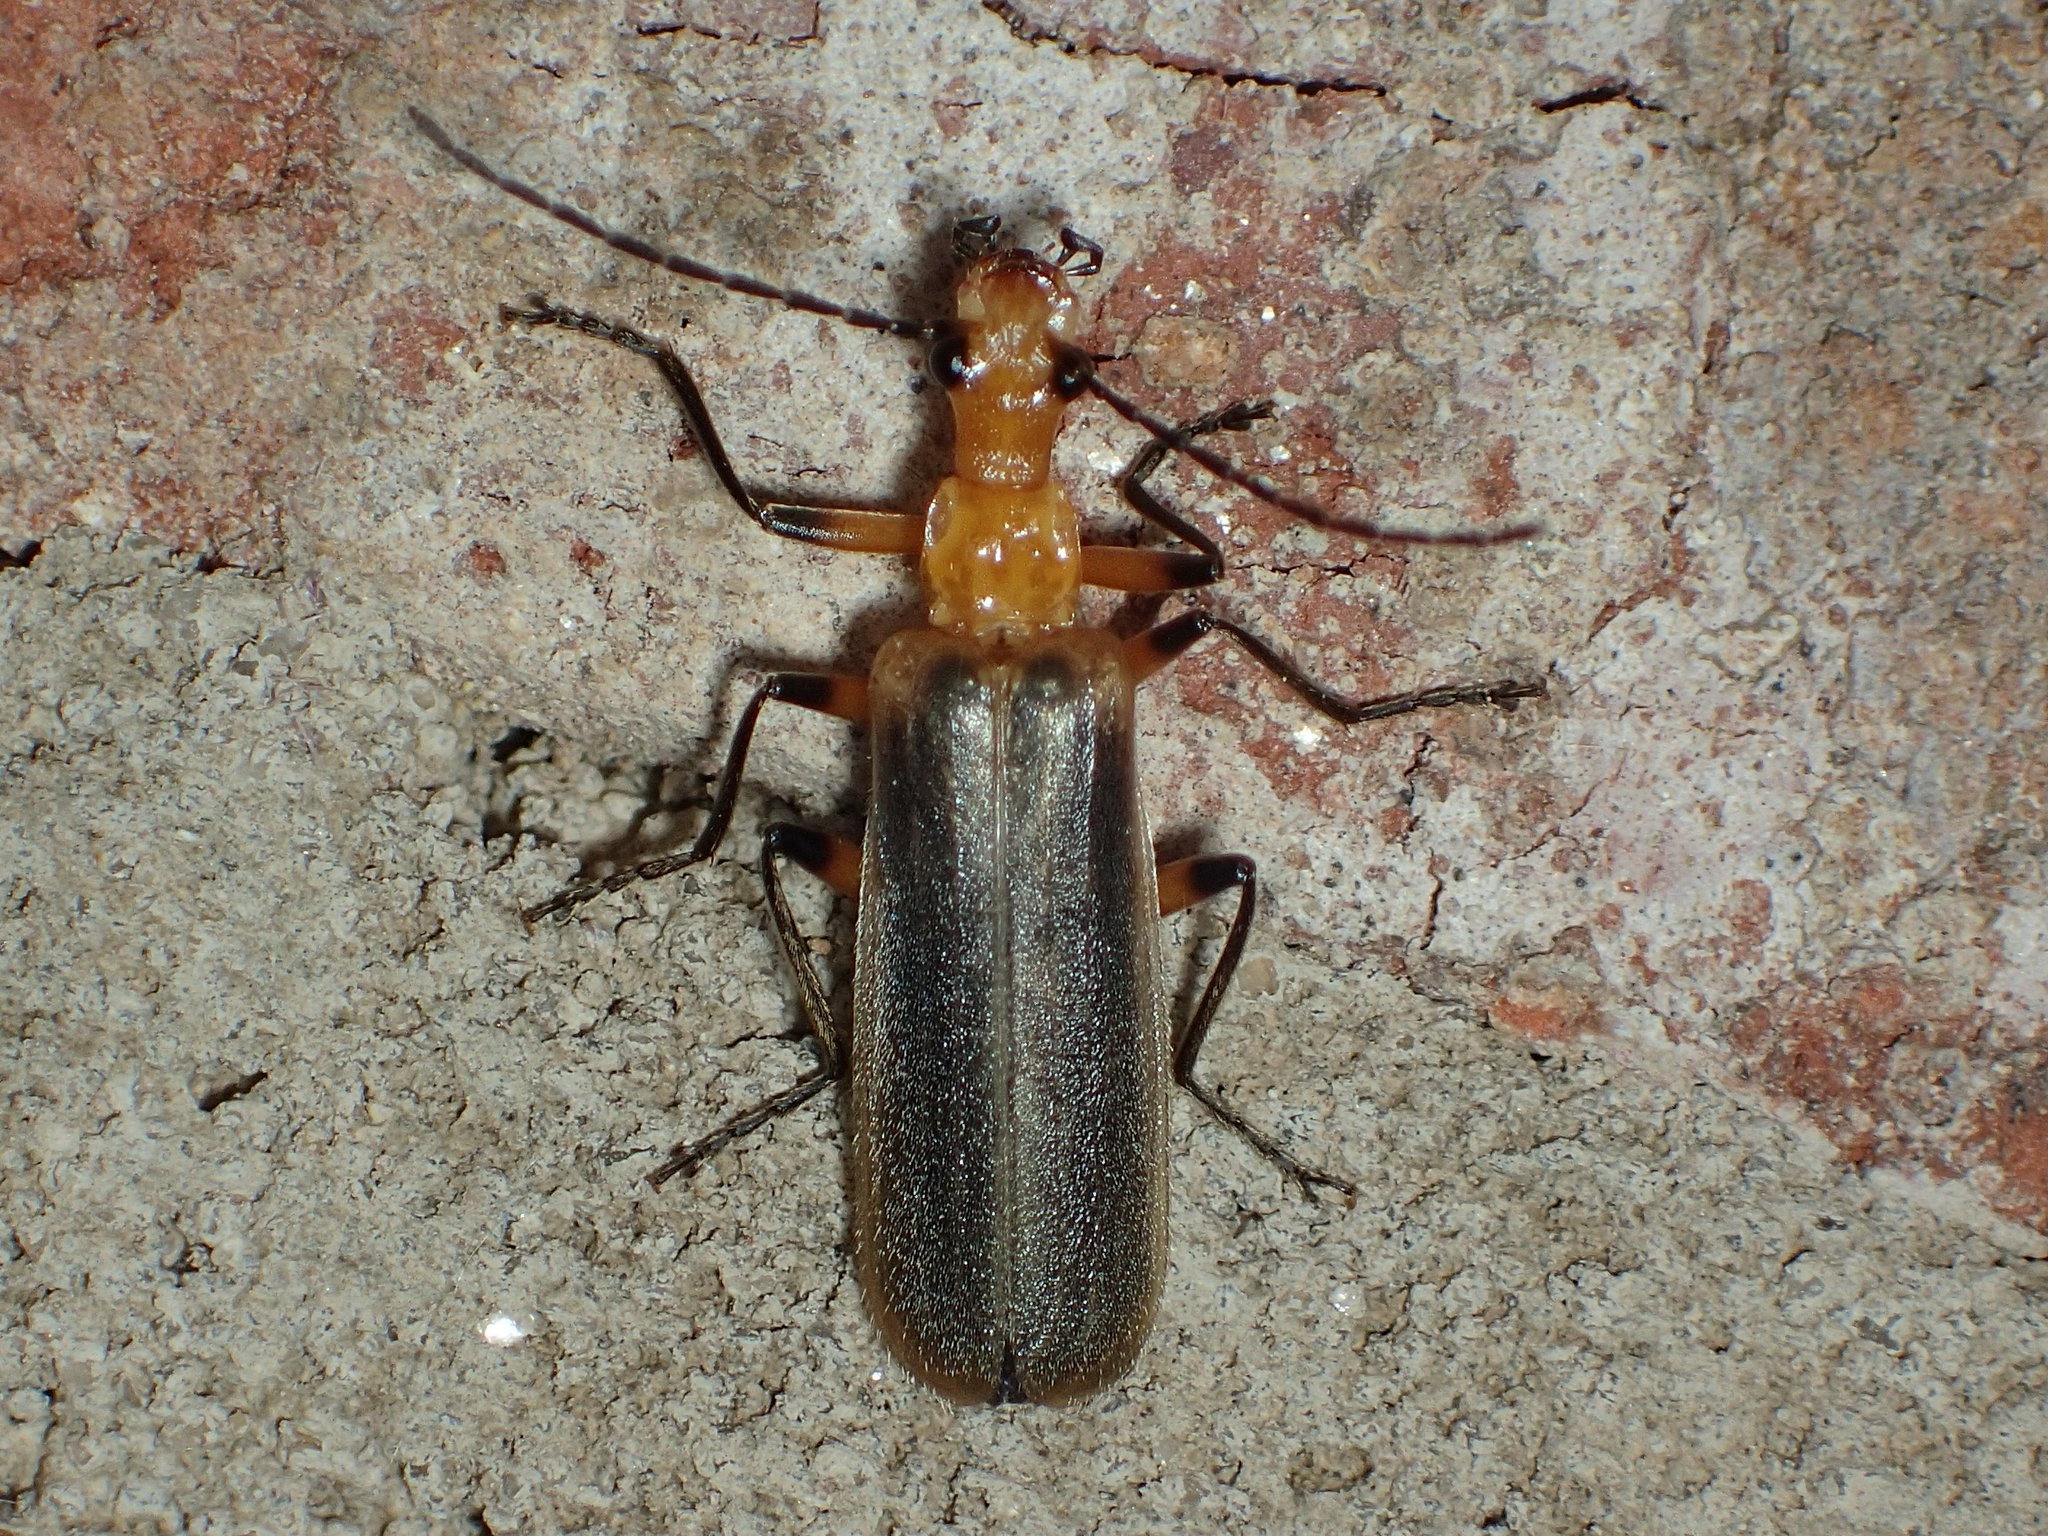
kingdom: Animalia
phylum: Arthropoda
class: Insecta
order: Coleoptera
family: Cantharidae
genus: Podabrus
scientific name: Podabrus protensus
